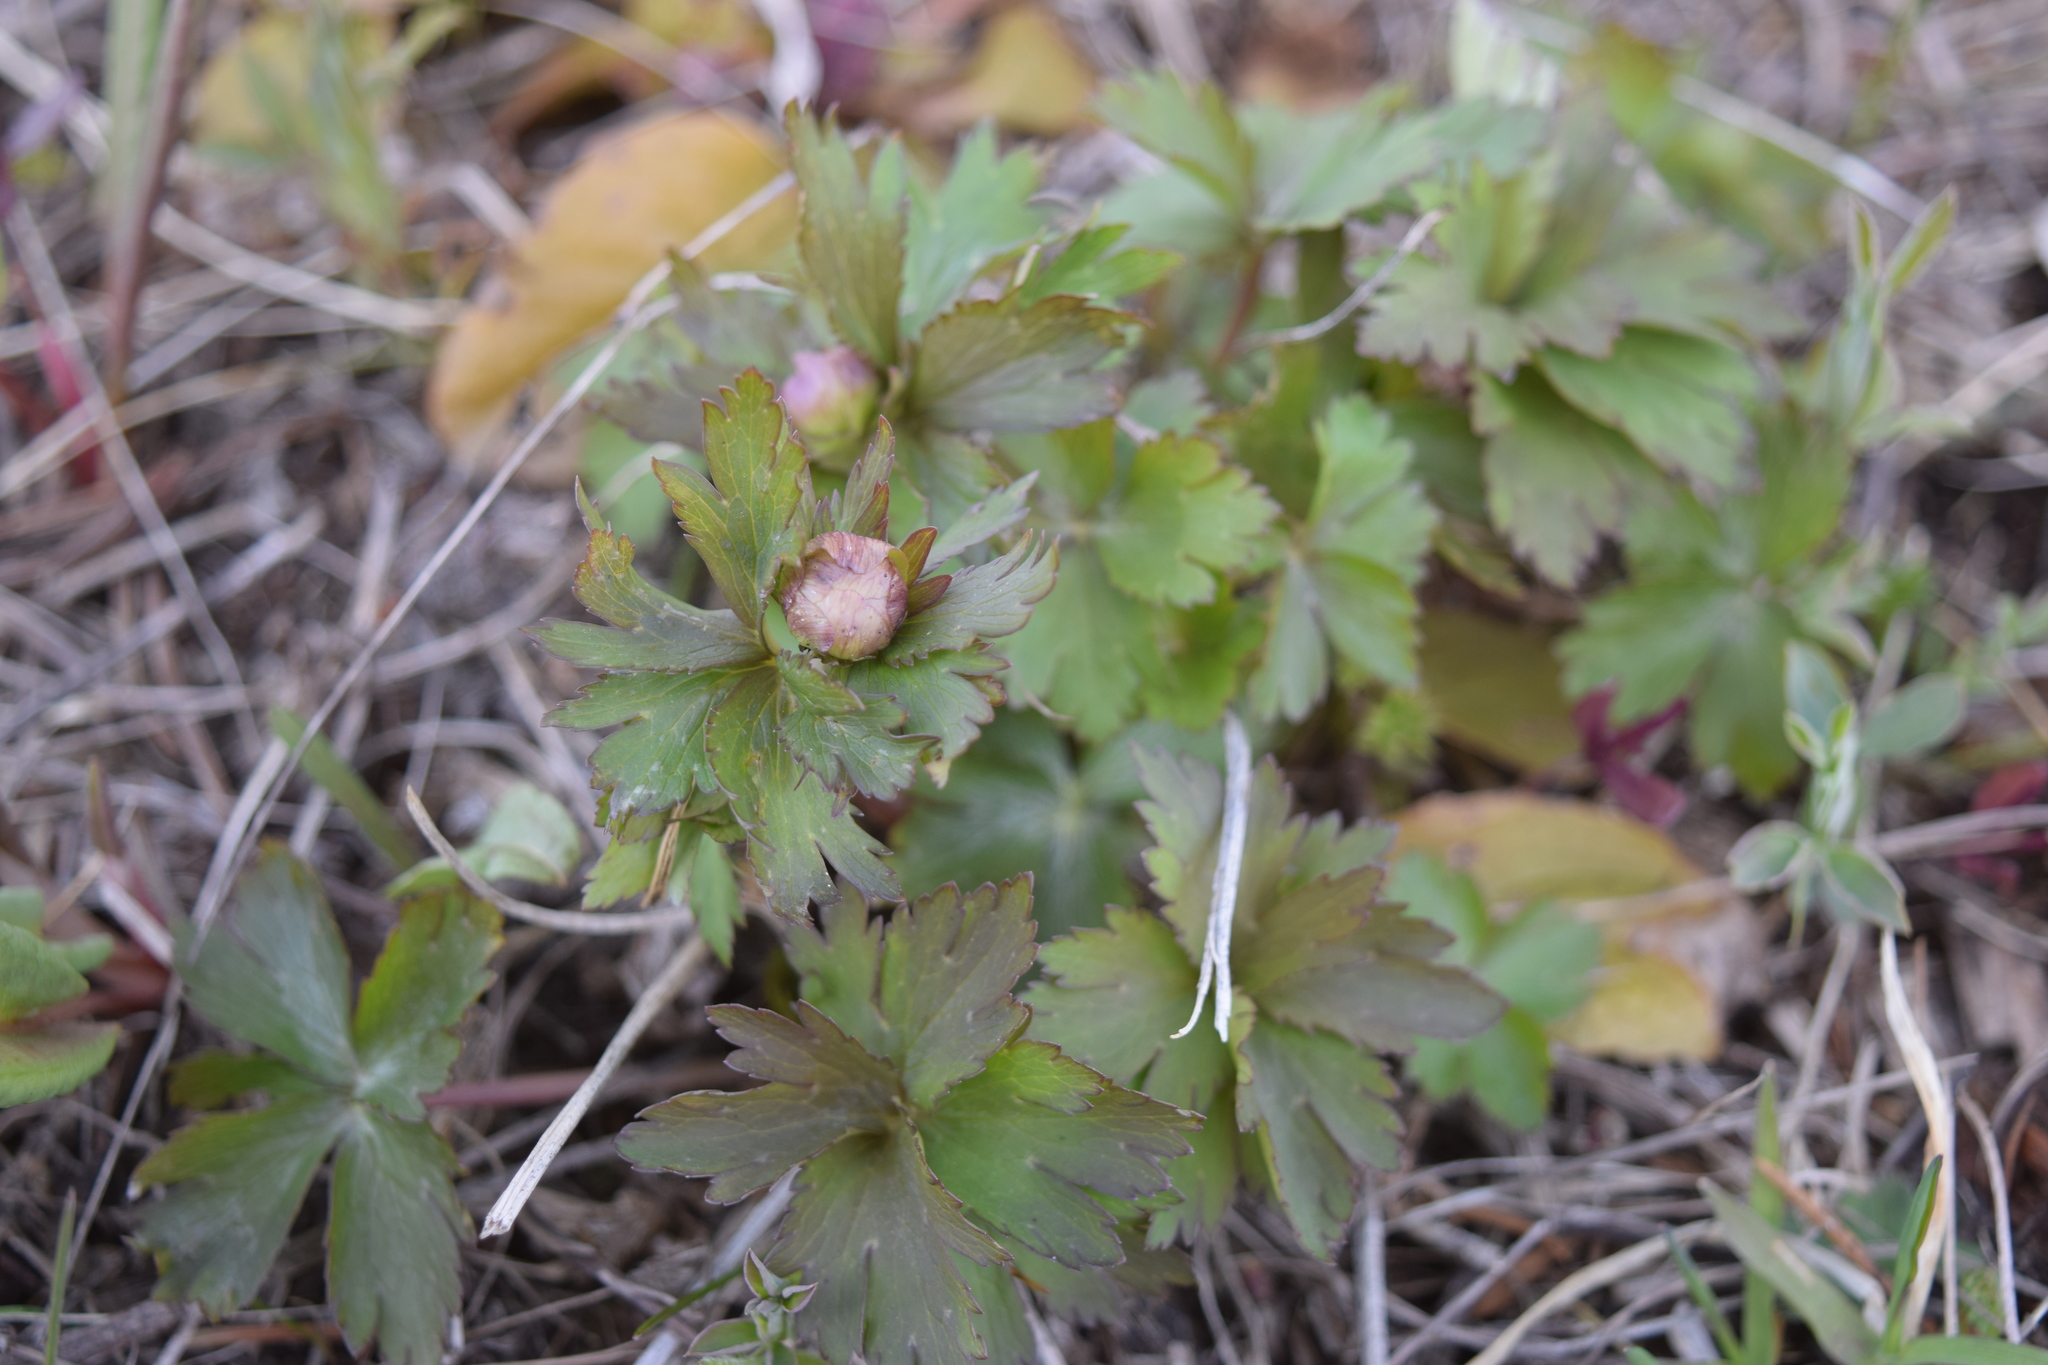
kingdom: Plantae
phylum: Tracheophyta
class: Magnoliopsida
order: Ranunculales
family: Ranunculaceae
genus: Trollius
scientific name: Trollius europaeus
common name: European globeflower
